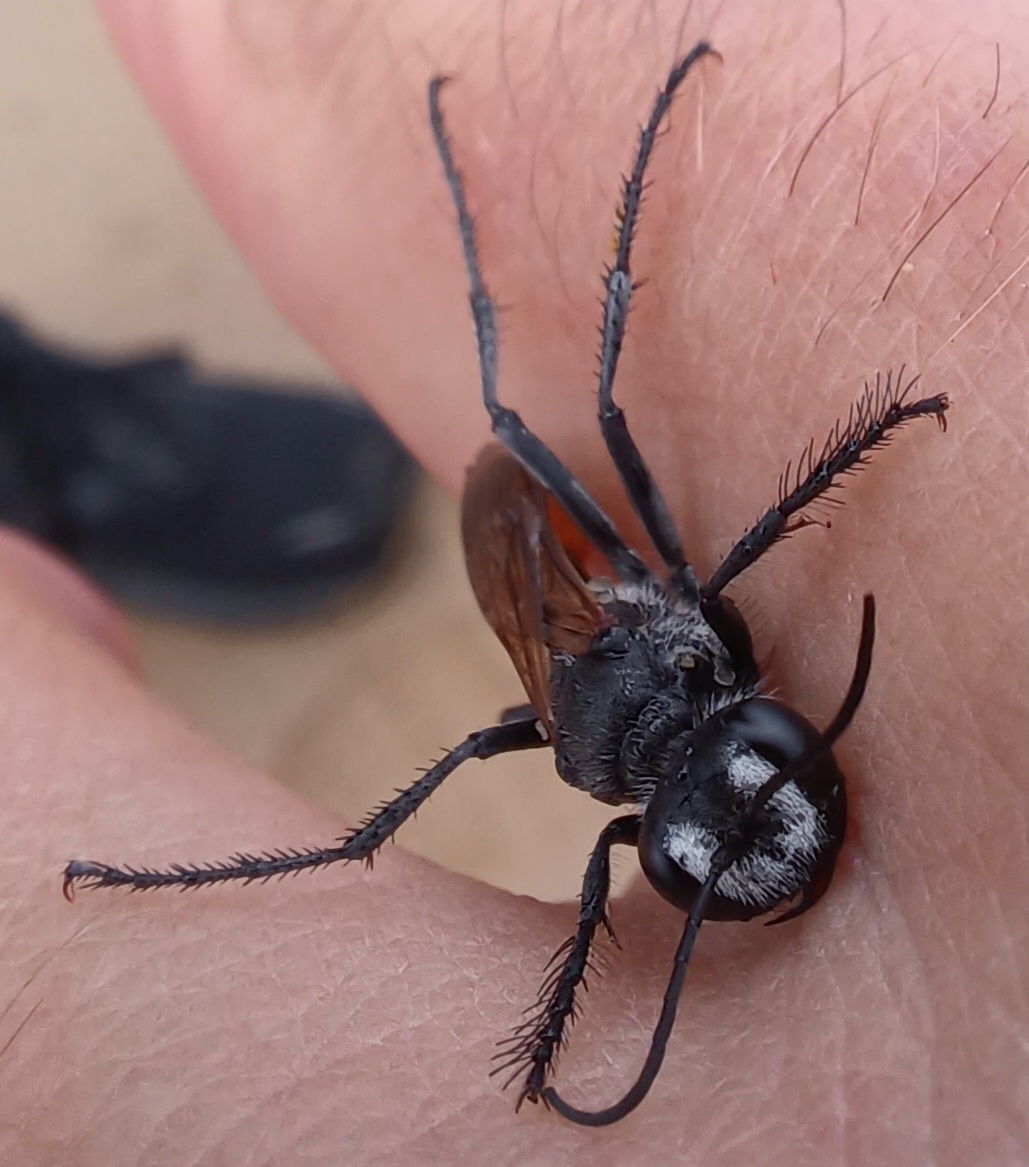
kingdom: Animalia
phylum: Arthropoda
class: Insecta
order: Hymenoptera
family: Sphecidae
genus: Podalonia
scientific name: Podalonia tydei
